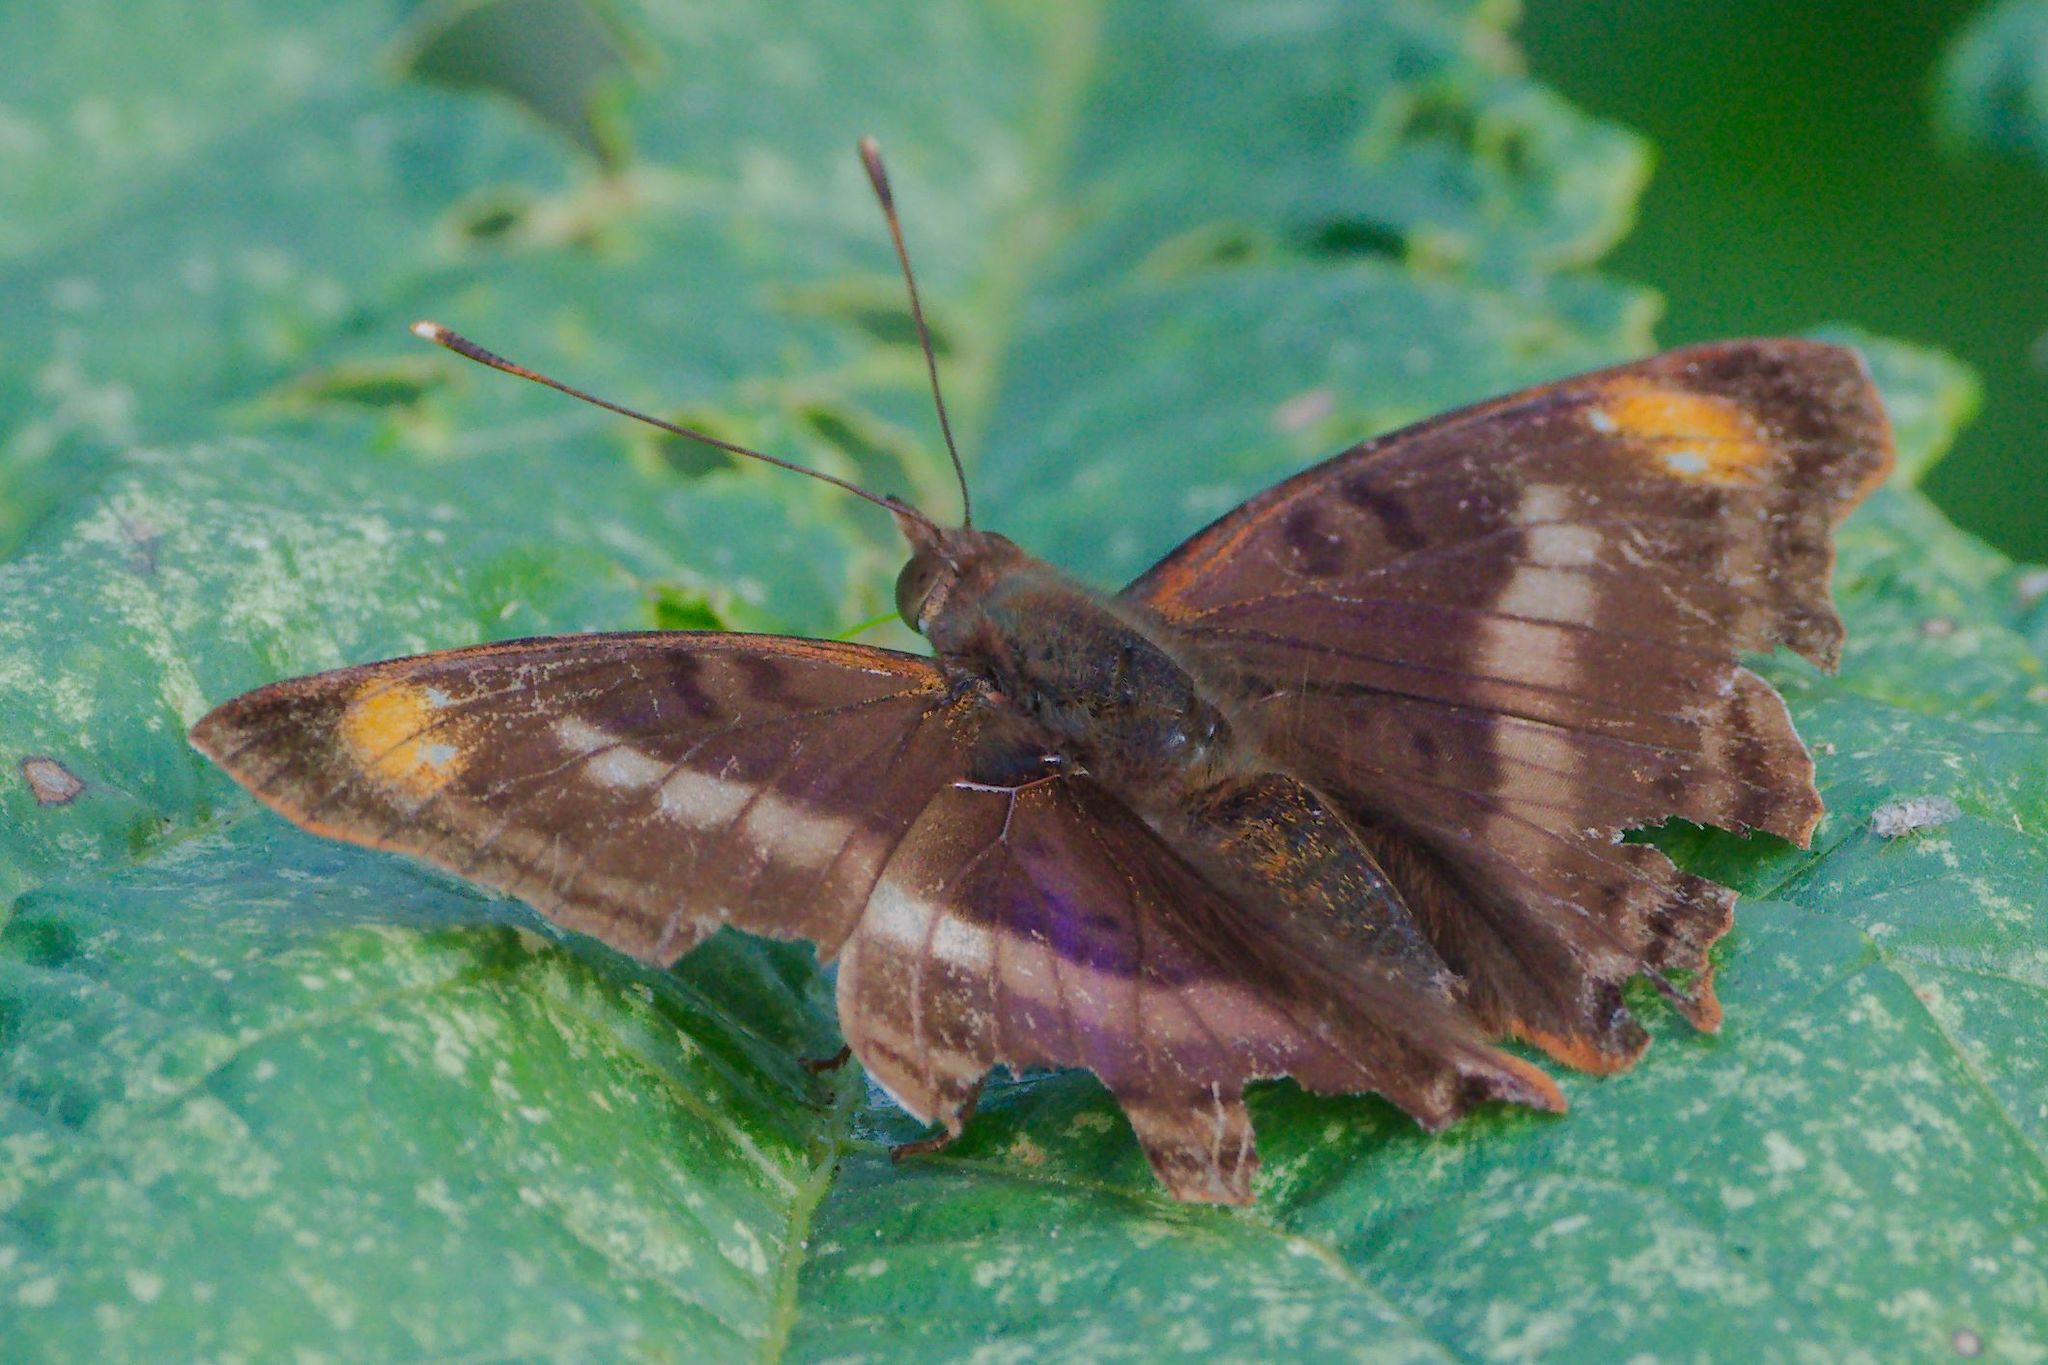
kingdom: Animalia
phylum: Arthropoda
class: Insecta
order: Lepidoptera
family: Nymphalidae
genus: Doxocopa
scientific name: Doxocopa pavon
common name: Pavon emperor
